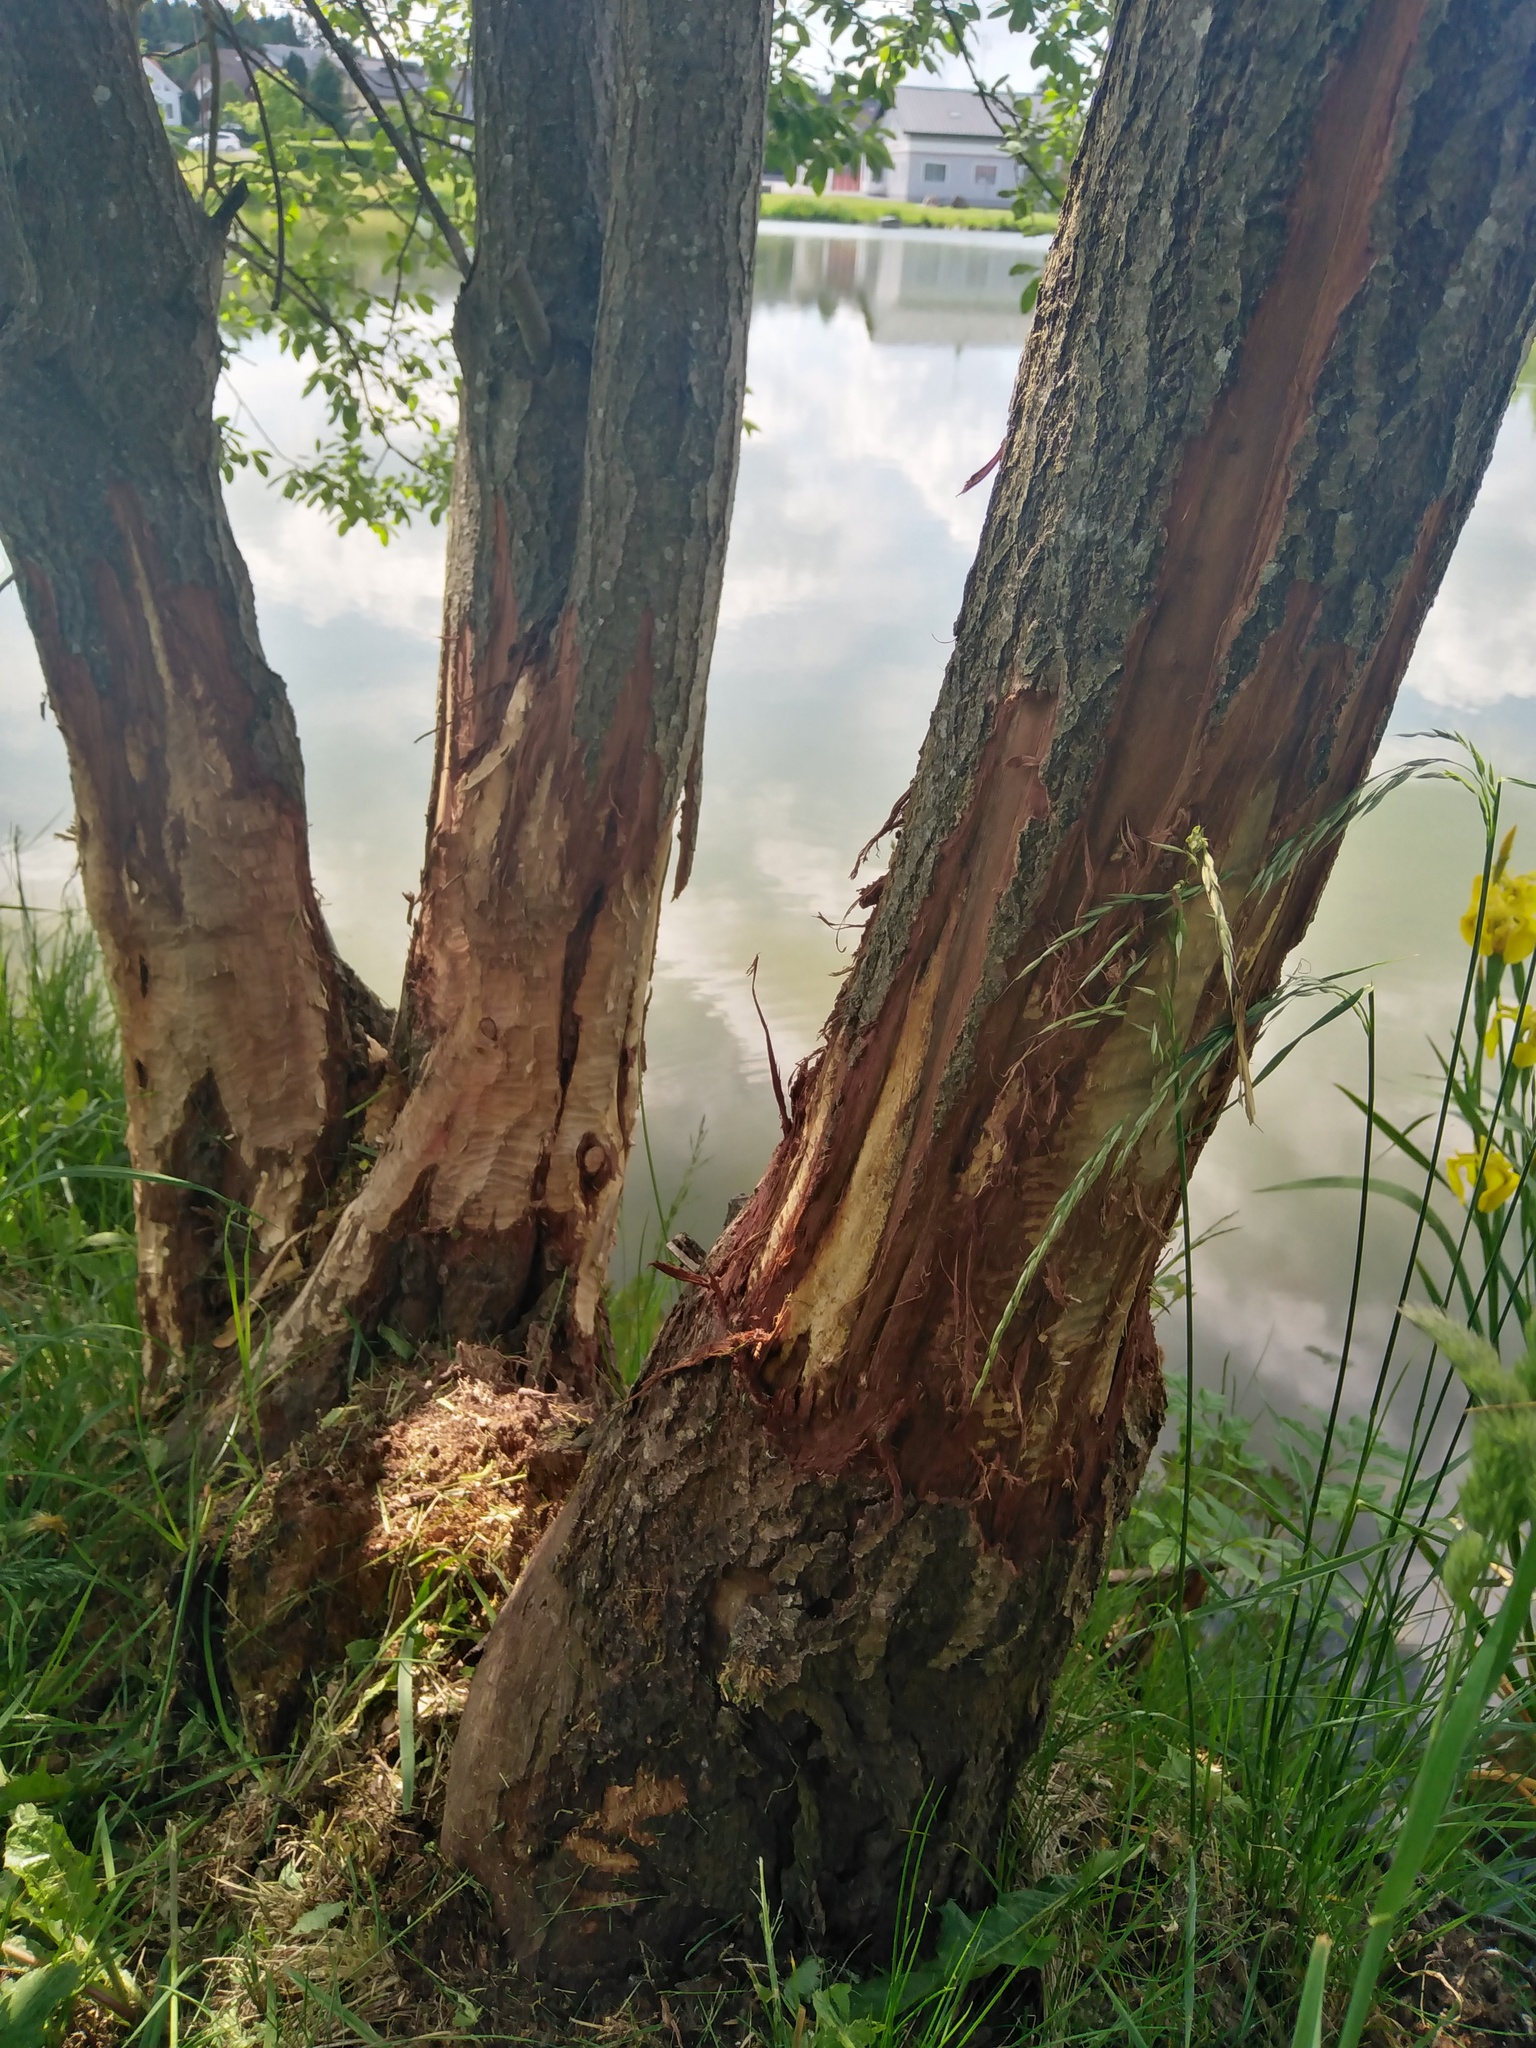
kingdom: Animalia
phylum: Chordata
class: Mammalia
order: Rodentia
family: Castoridae
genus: Castor
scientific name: Castor fiber
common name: Eurasian beaver
